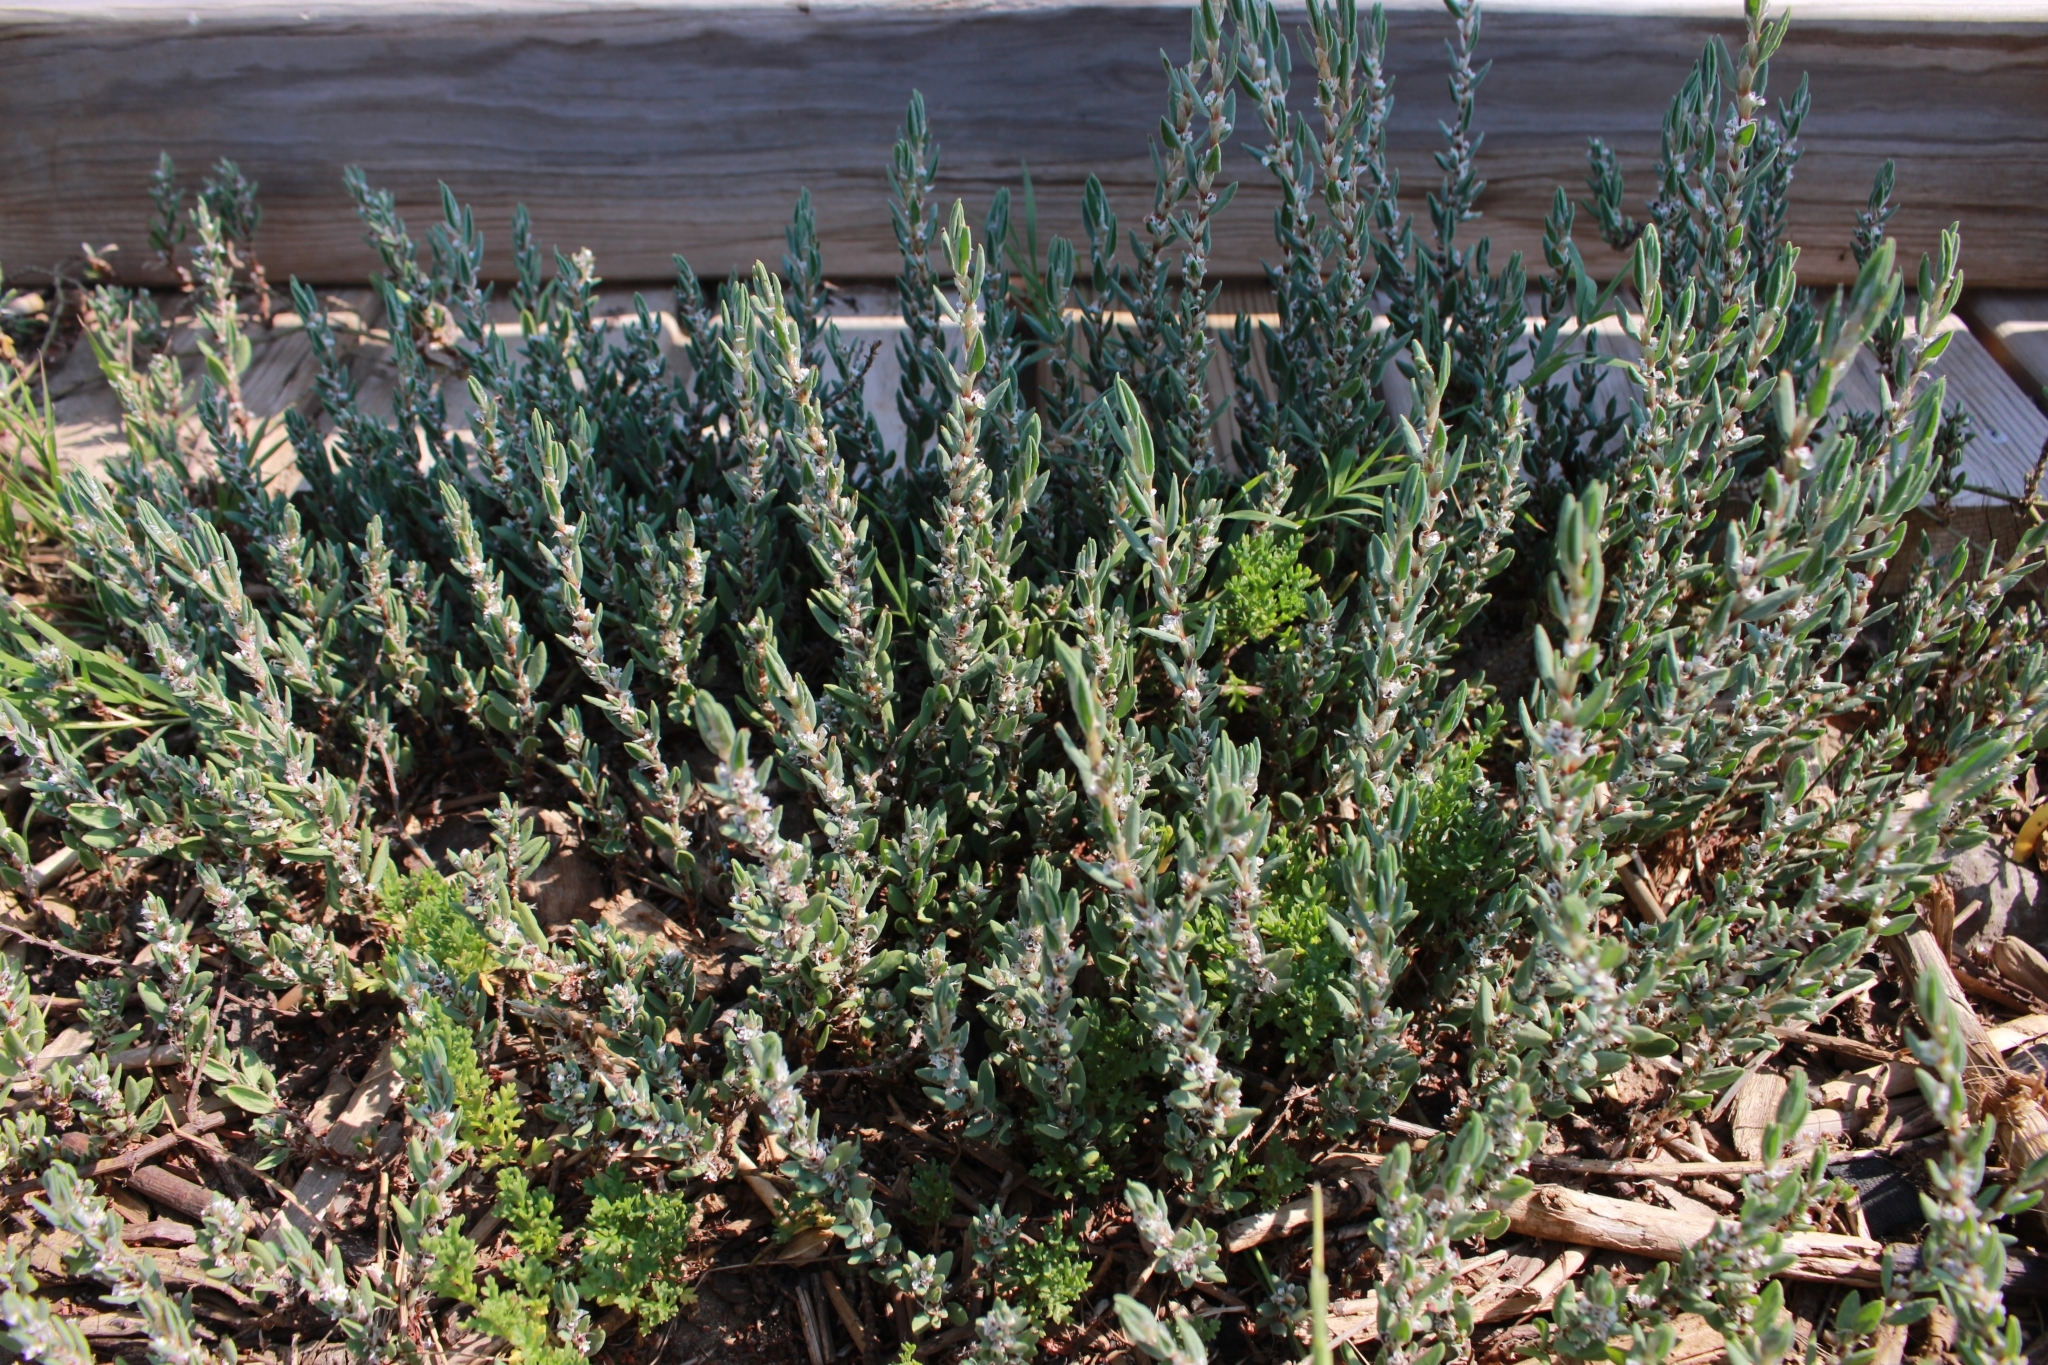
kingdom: Plantae
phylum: Tracheophyta
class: Magnoliopsida
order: Caryophyllales
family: Polygonaceae
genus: Polygonum
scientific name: Polygonum maritimum
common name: Sea knotgrass
